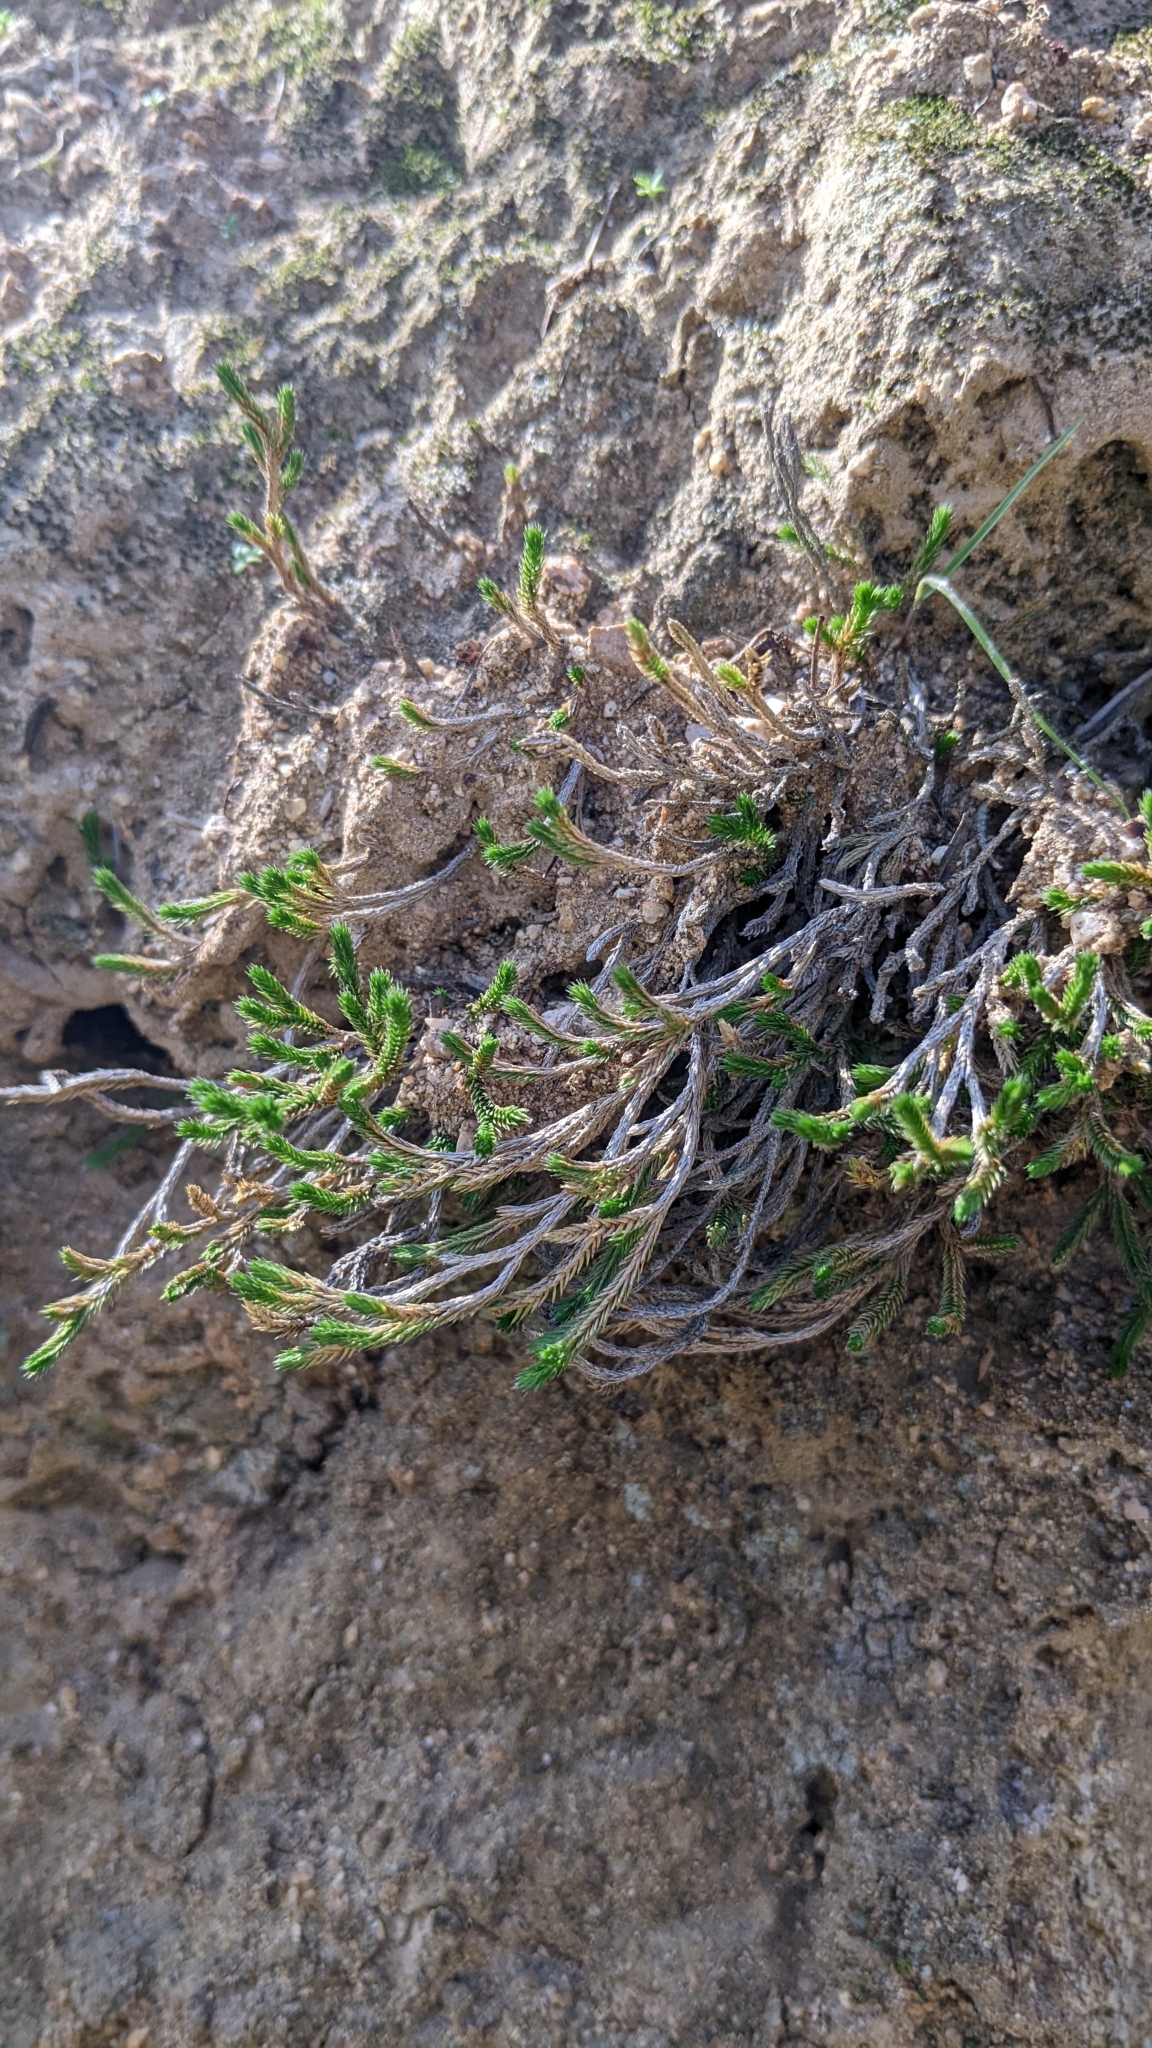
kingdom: Plantae
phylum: Tracheophyta
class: Lycopodiopsida
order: Selaginellales
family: Selaginellaceae
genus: Selaginella
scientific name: Selaginella bigelovii
